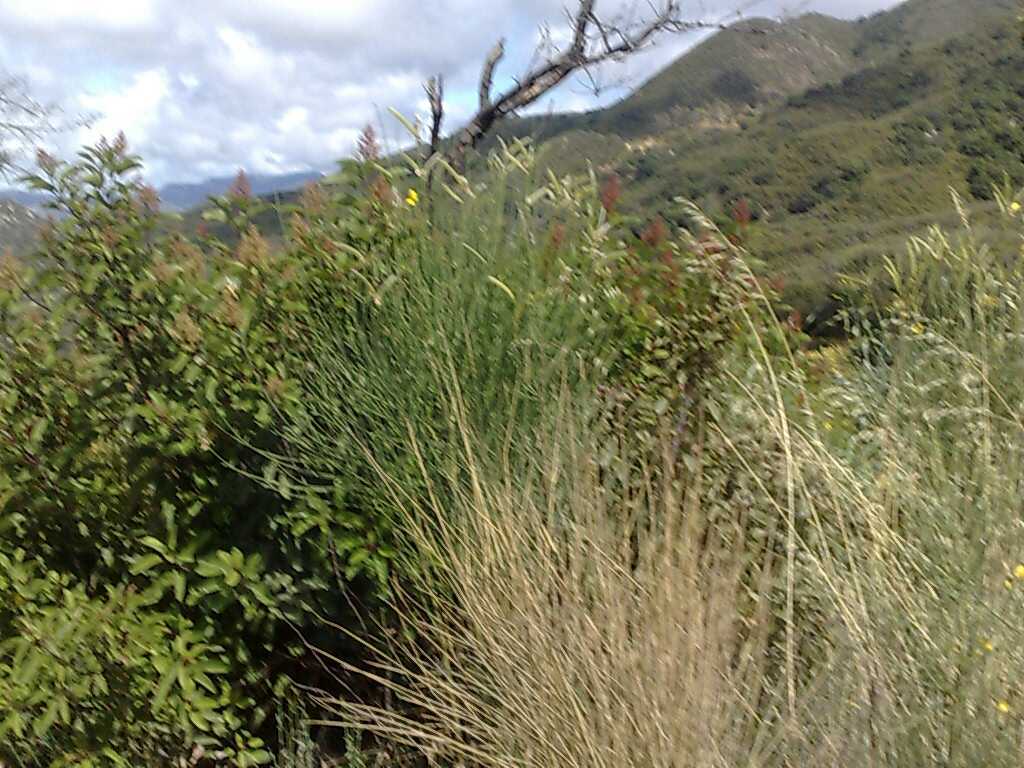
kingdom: Plantae
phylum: Tracheophyta
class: Magnoliopsida
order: Sapindales
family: Anacardiaceae
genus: Malosma
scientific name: Malosma laurina
